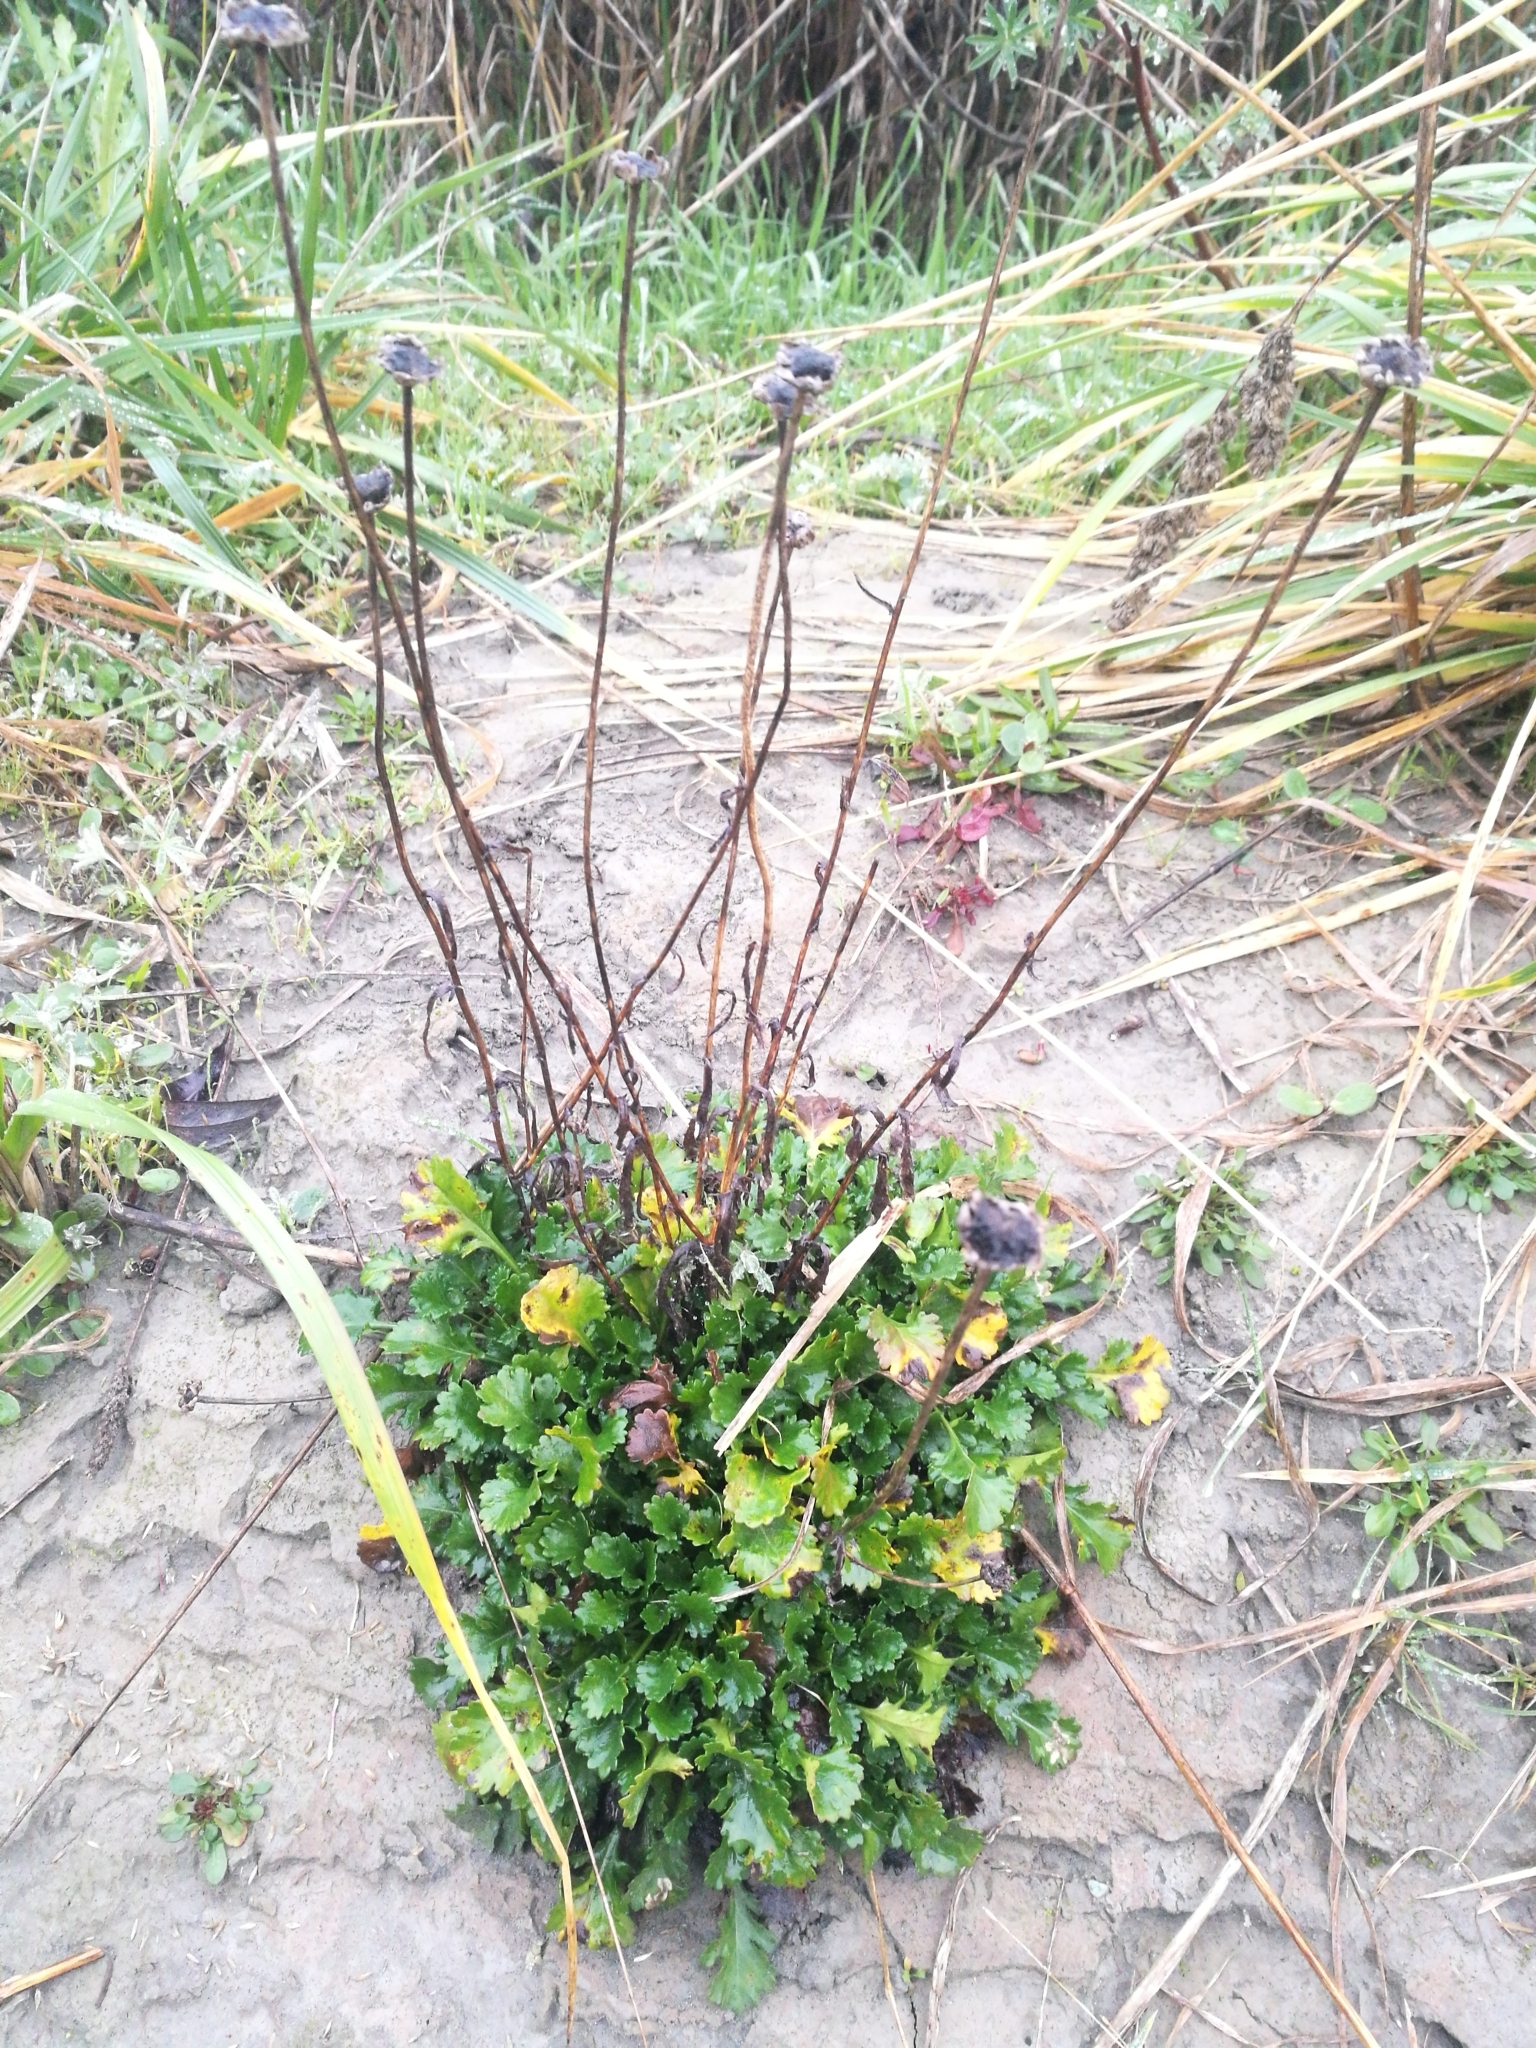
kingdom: Plantae
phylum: Tracheophyta
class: Magnoliopsida
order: Asterales
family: Asteraceae
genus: Leucanthemum
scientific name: Leucanthemum vulgare
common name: Oxeye daisy
